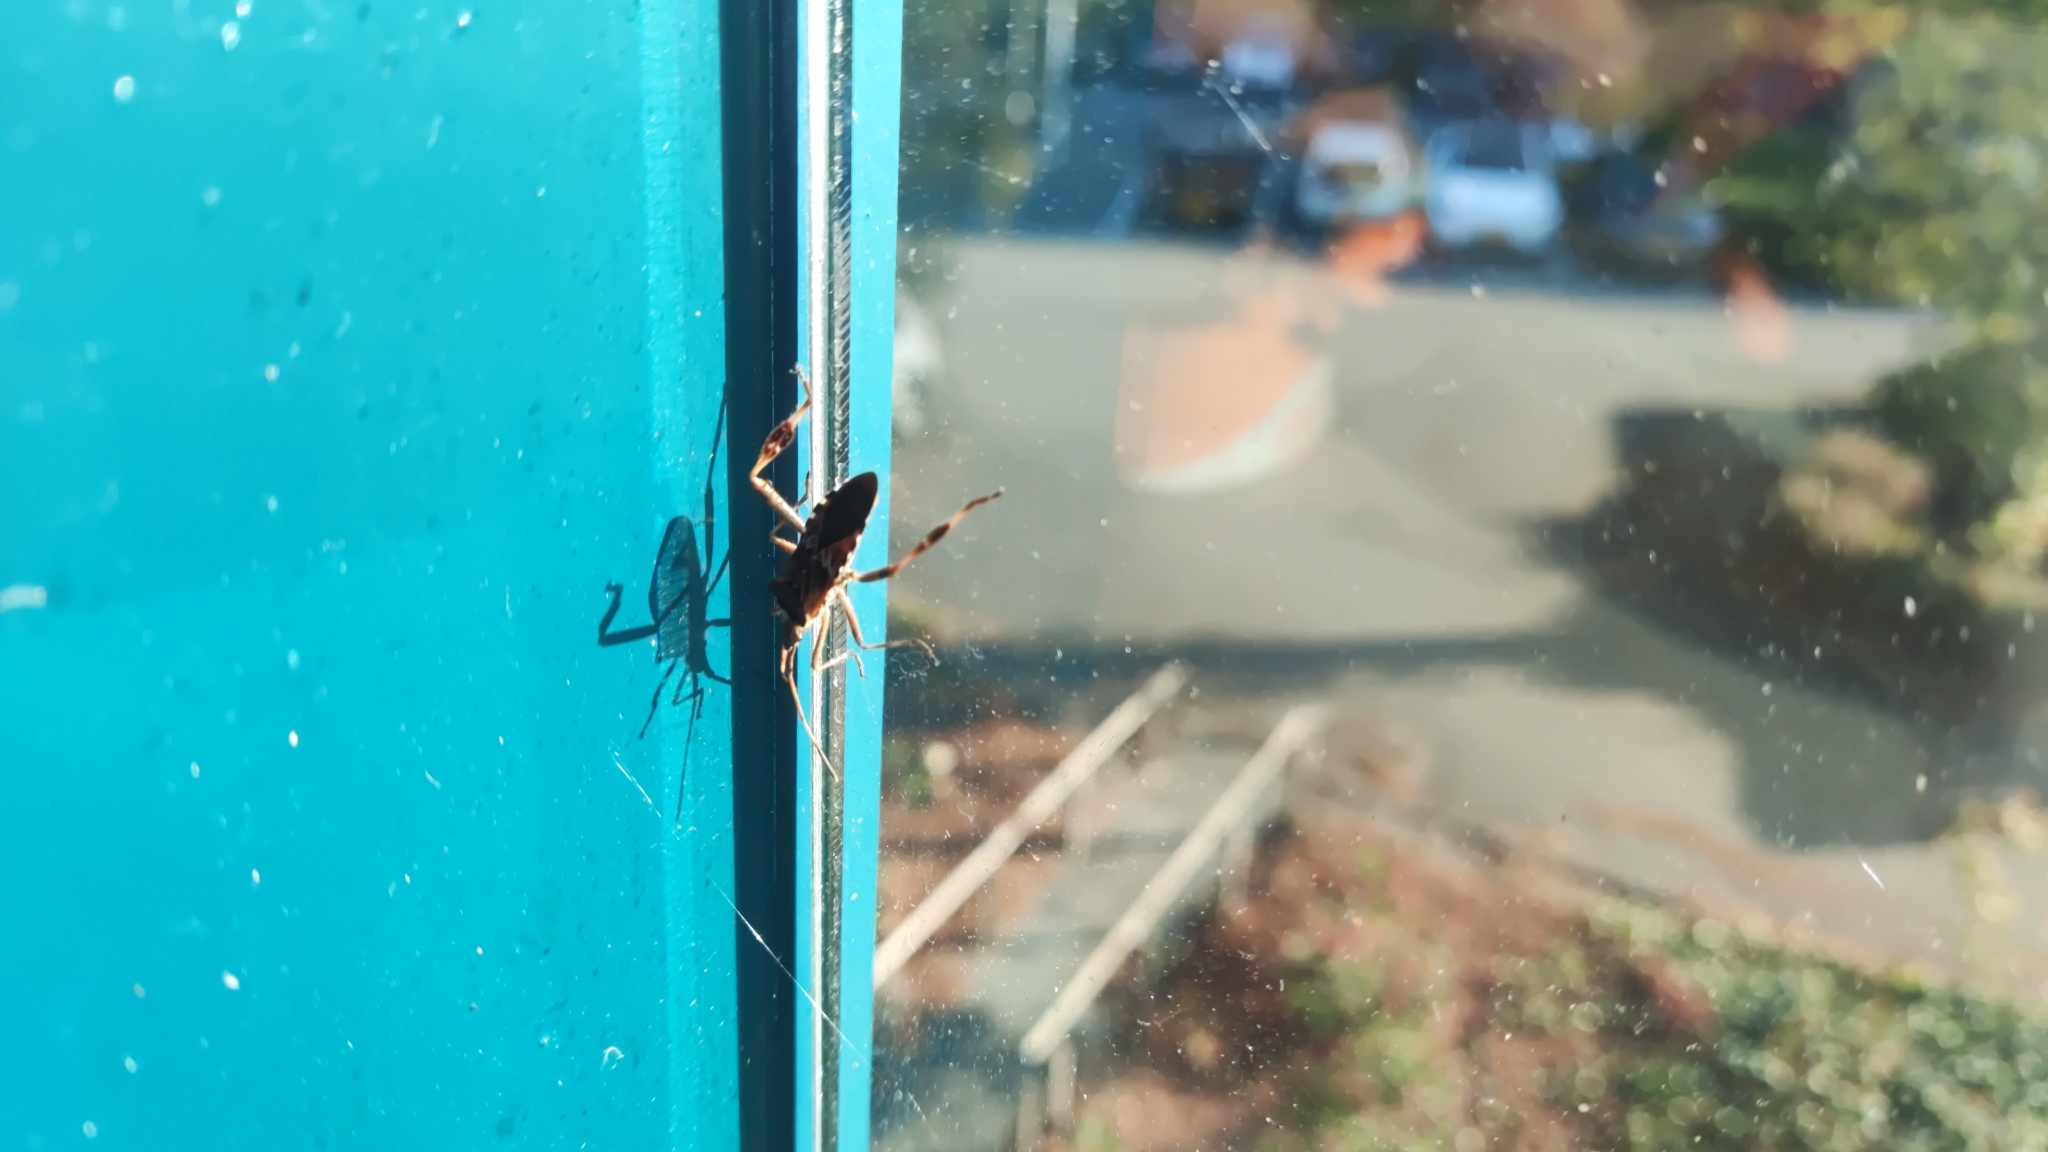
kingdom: Animalia
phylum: Arthropoda
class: Insecta
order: Hemiptera
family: Coreidae
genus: Leptoglossus
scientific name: Leptoglossus occidentalis
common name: Western conifer-seed bug
